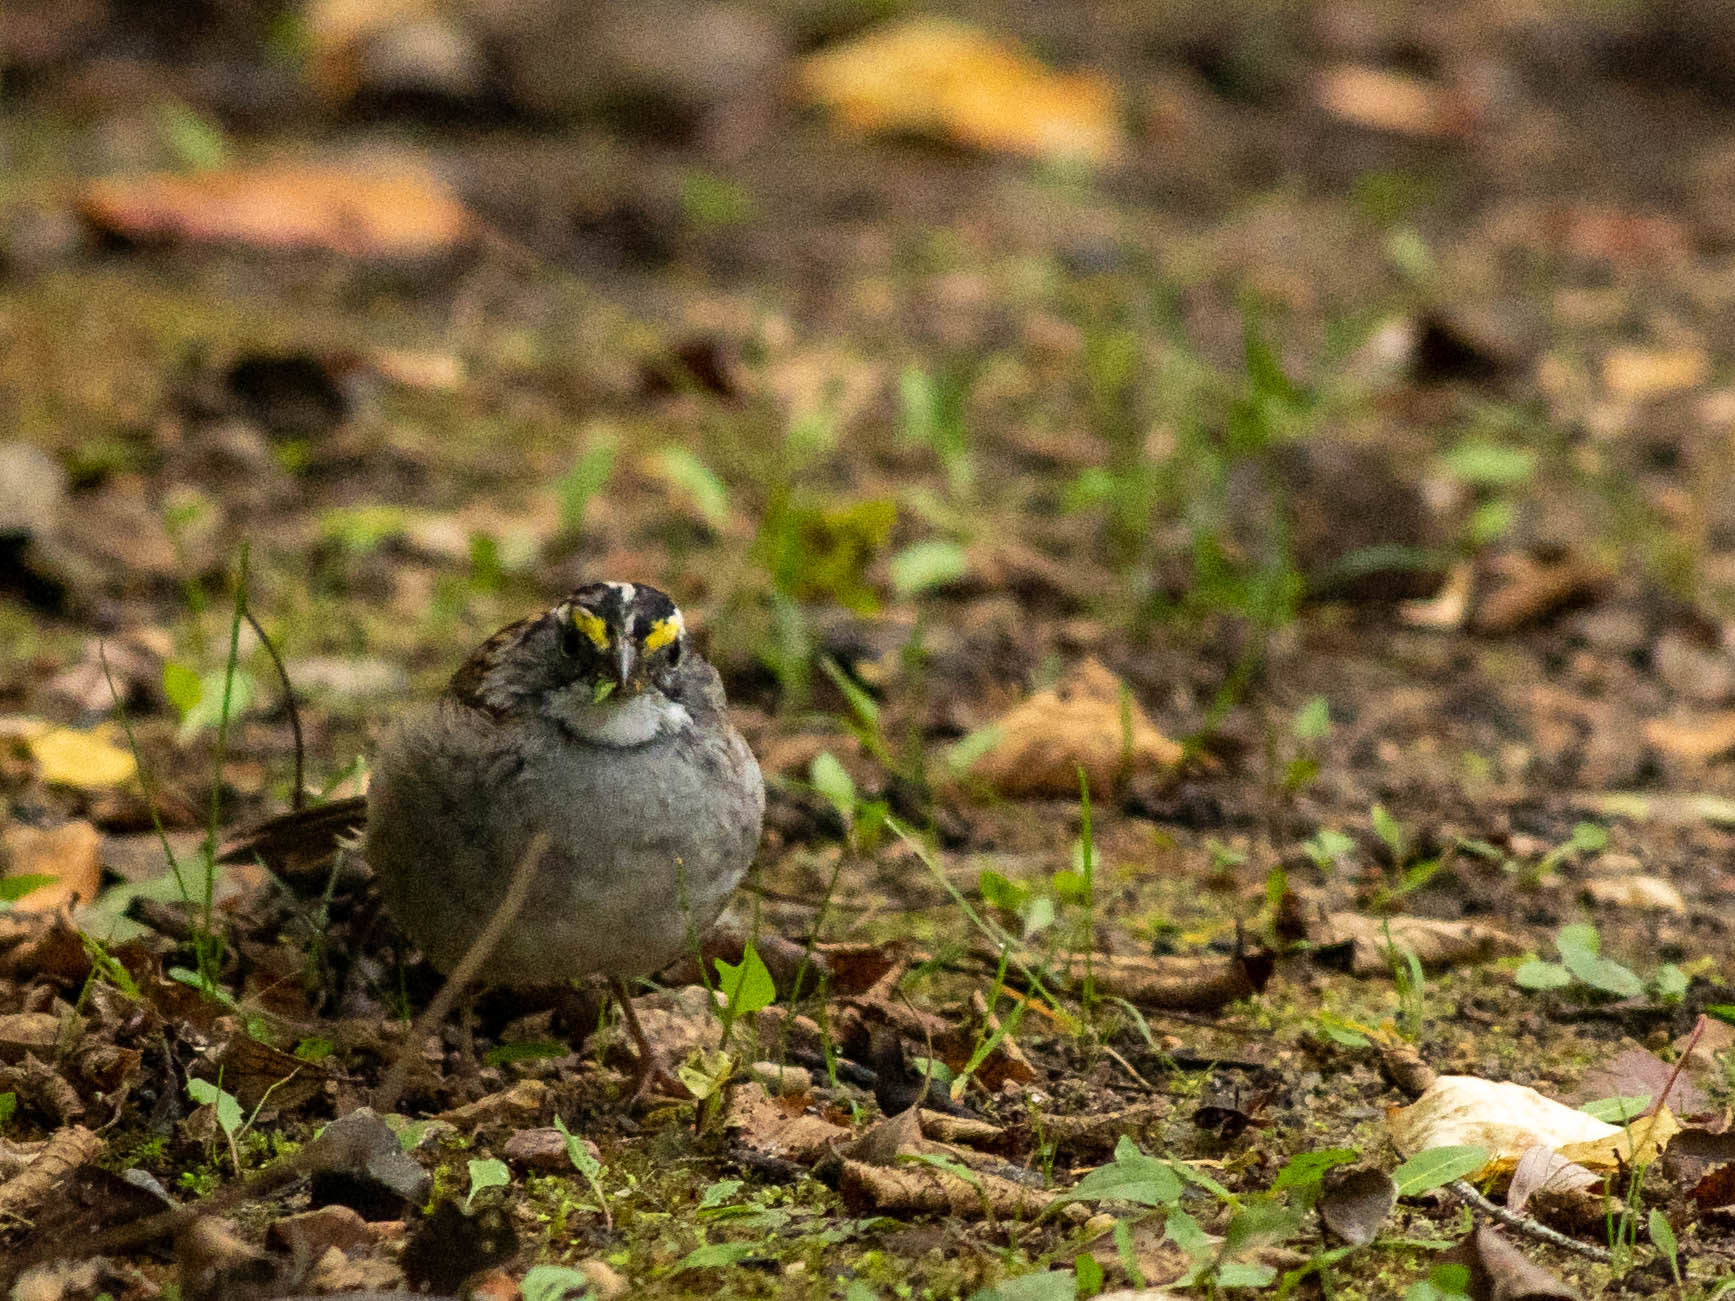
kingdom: Animalia
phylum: Chordata
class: Aves
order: Passeriformes
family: Passerellidae
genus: Zonotrichia
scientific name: Zonotrichia albicollis
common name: White-throated sparrow
